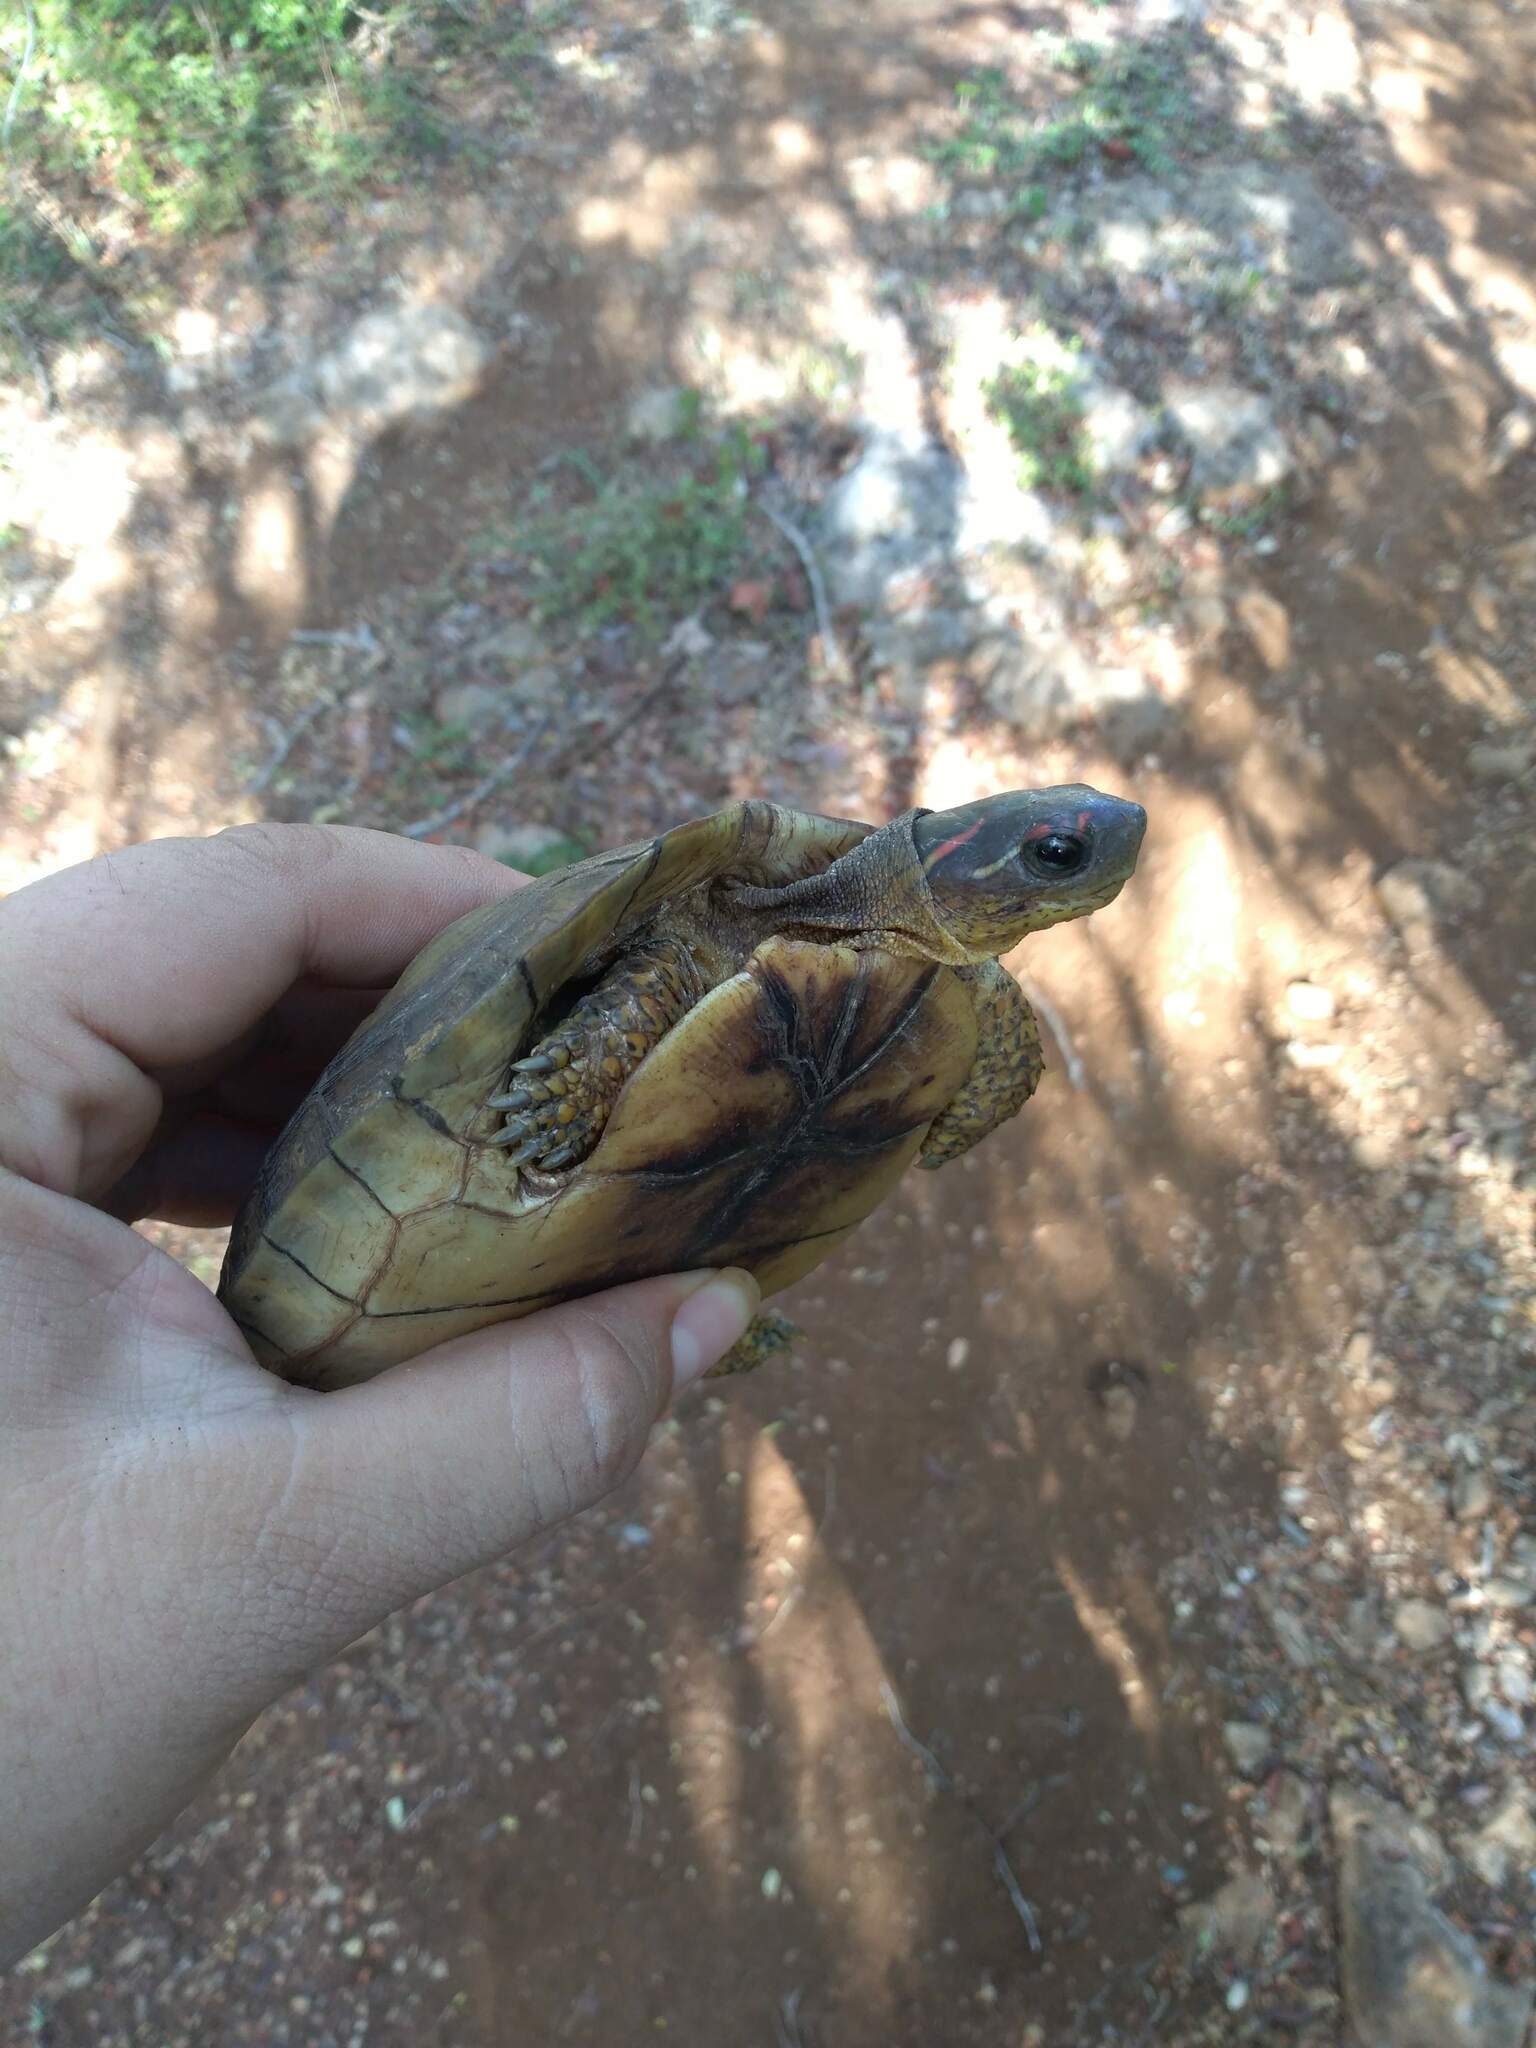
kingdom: Animalia
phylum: Chordata
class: Testudines
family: Geoemydidae
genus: Rhinoclemmys
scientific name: Rhinoclemmys areolata
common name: Furrowed wood turtle
